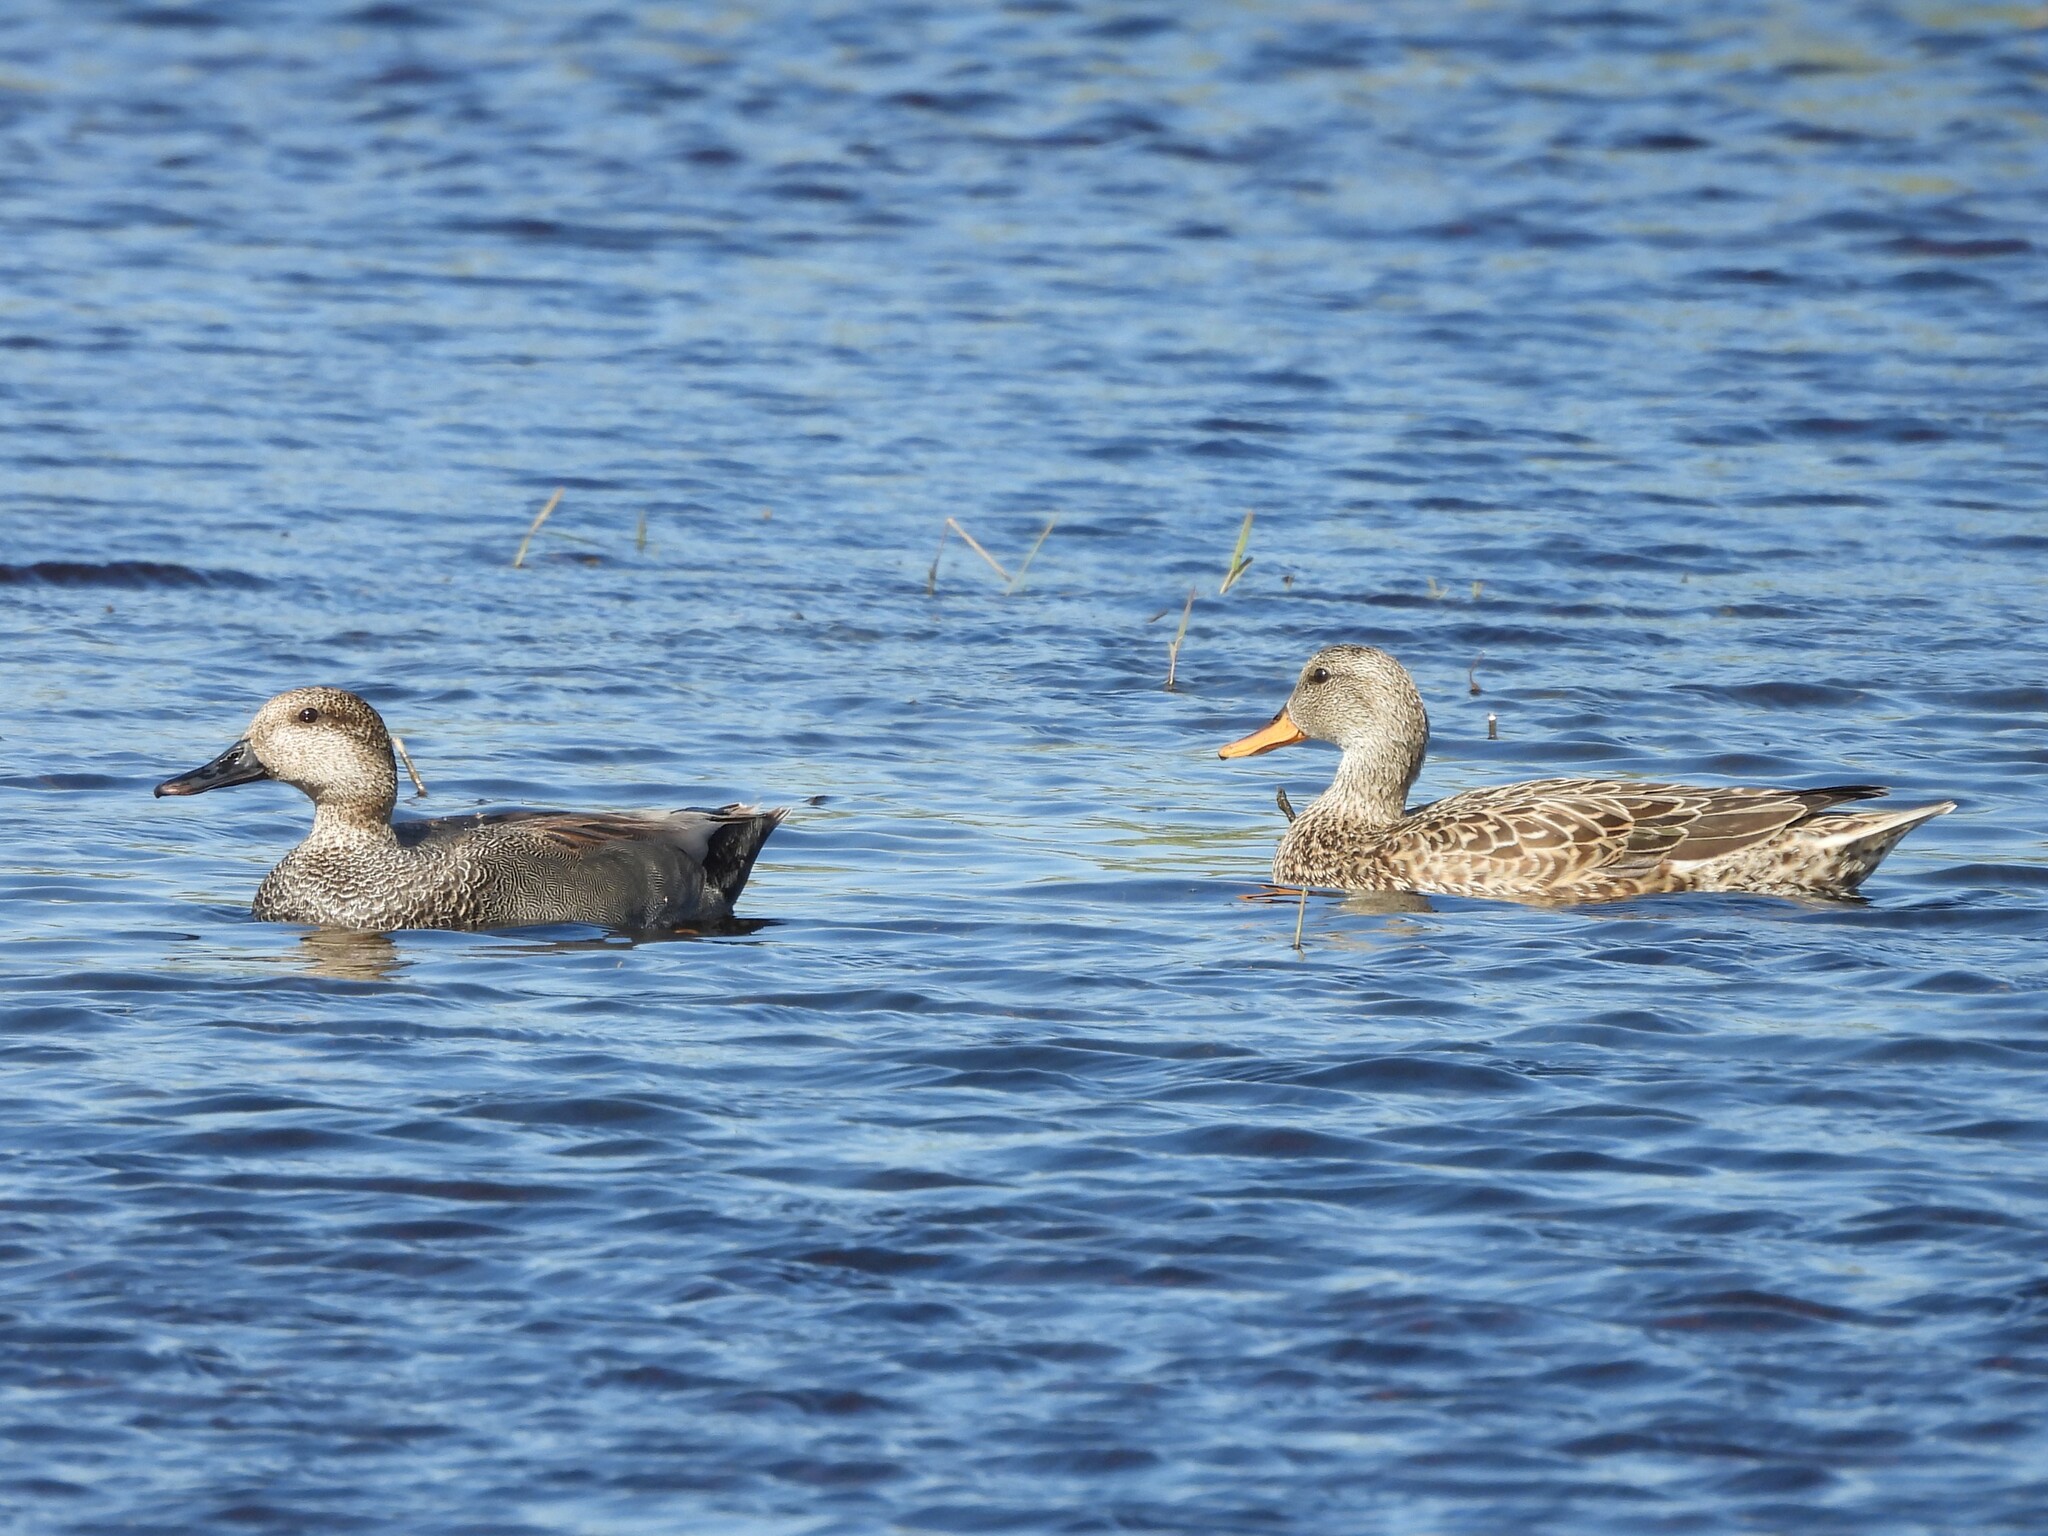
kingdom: Animalia
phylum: Chordata
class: Aves
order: Anseriformes
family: Anatidae
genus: Mareca
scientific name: Mareca strepera
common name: Gadwall
